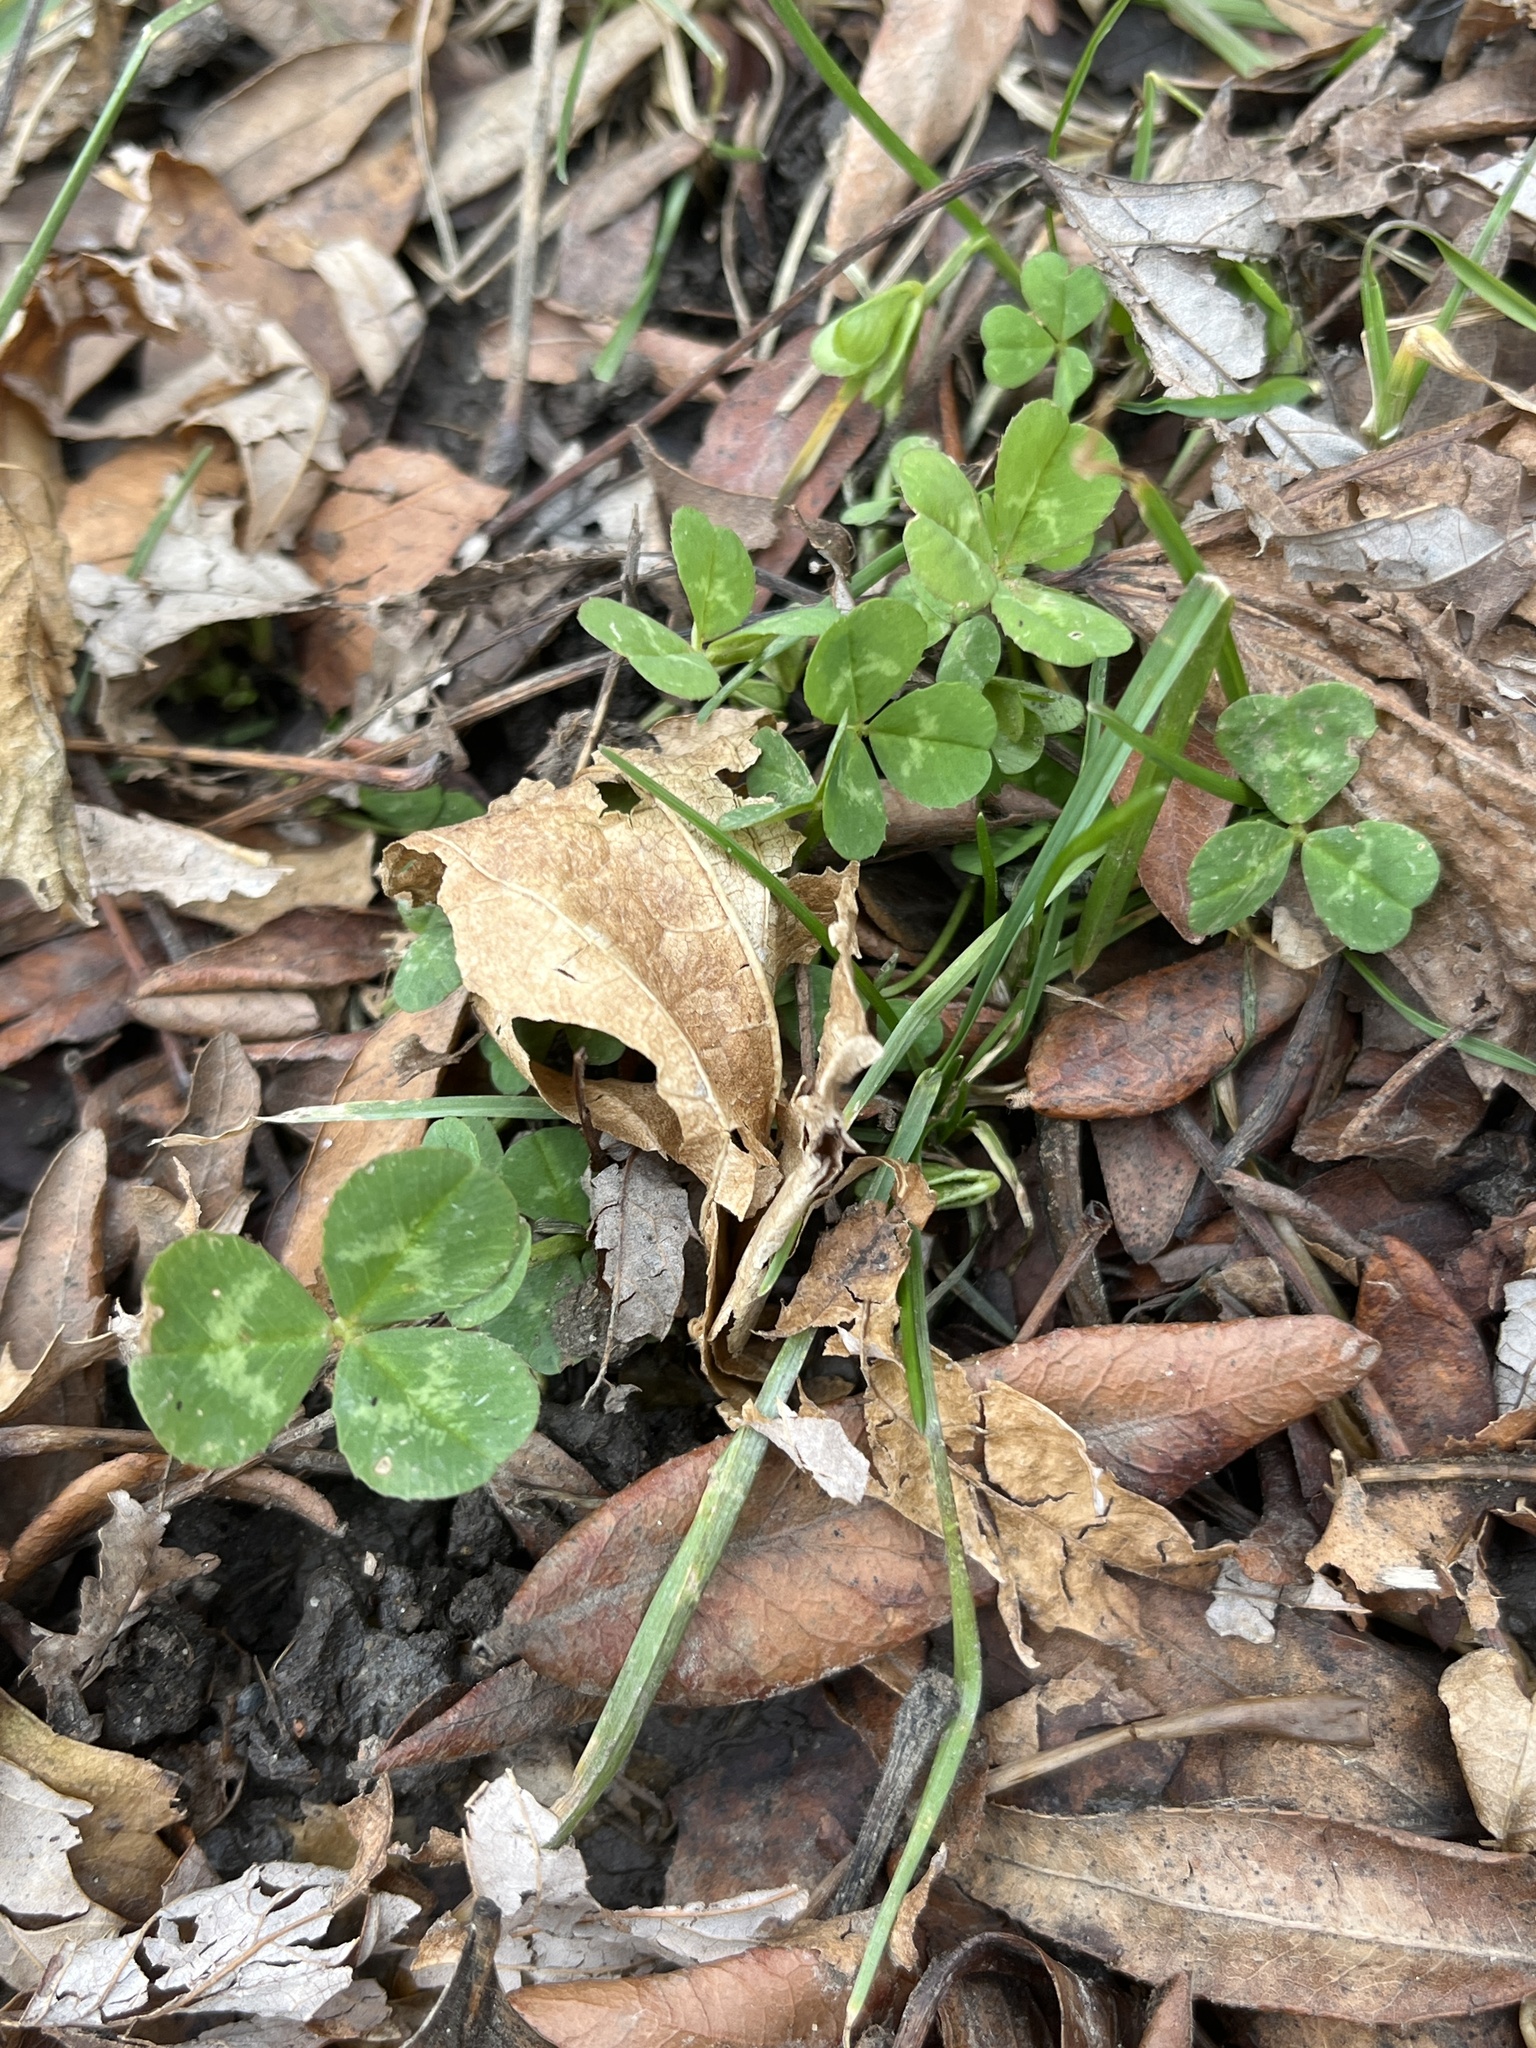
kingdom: Plantae
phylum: Tracheophyta
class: Magnoliopsida
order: Fabales
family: Fabaceae
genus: Trifolium
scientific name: Trifolium repens
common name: White clover
